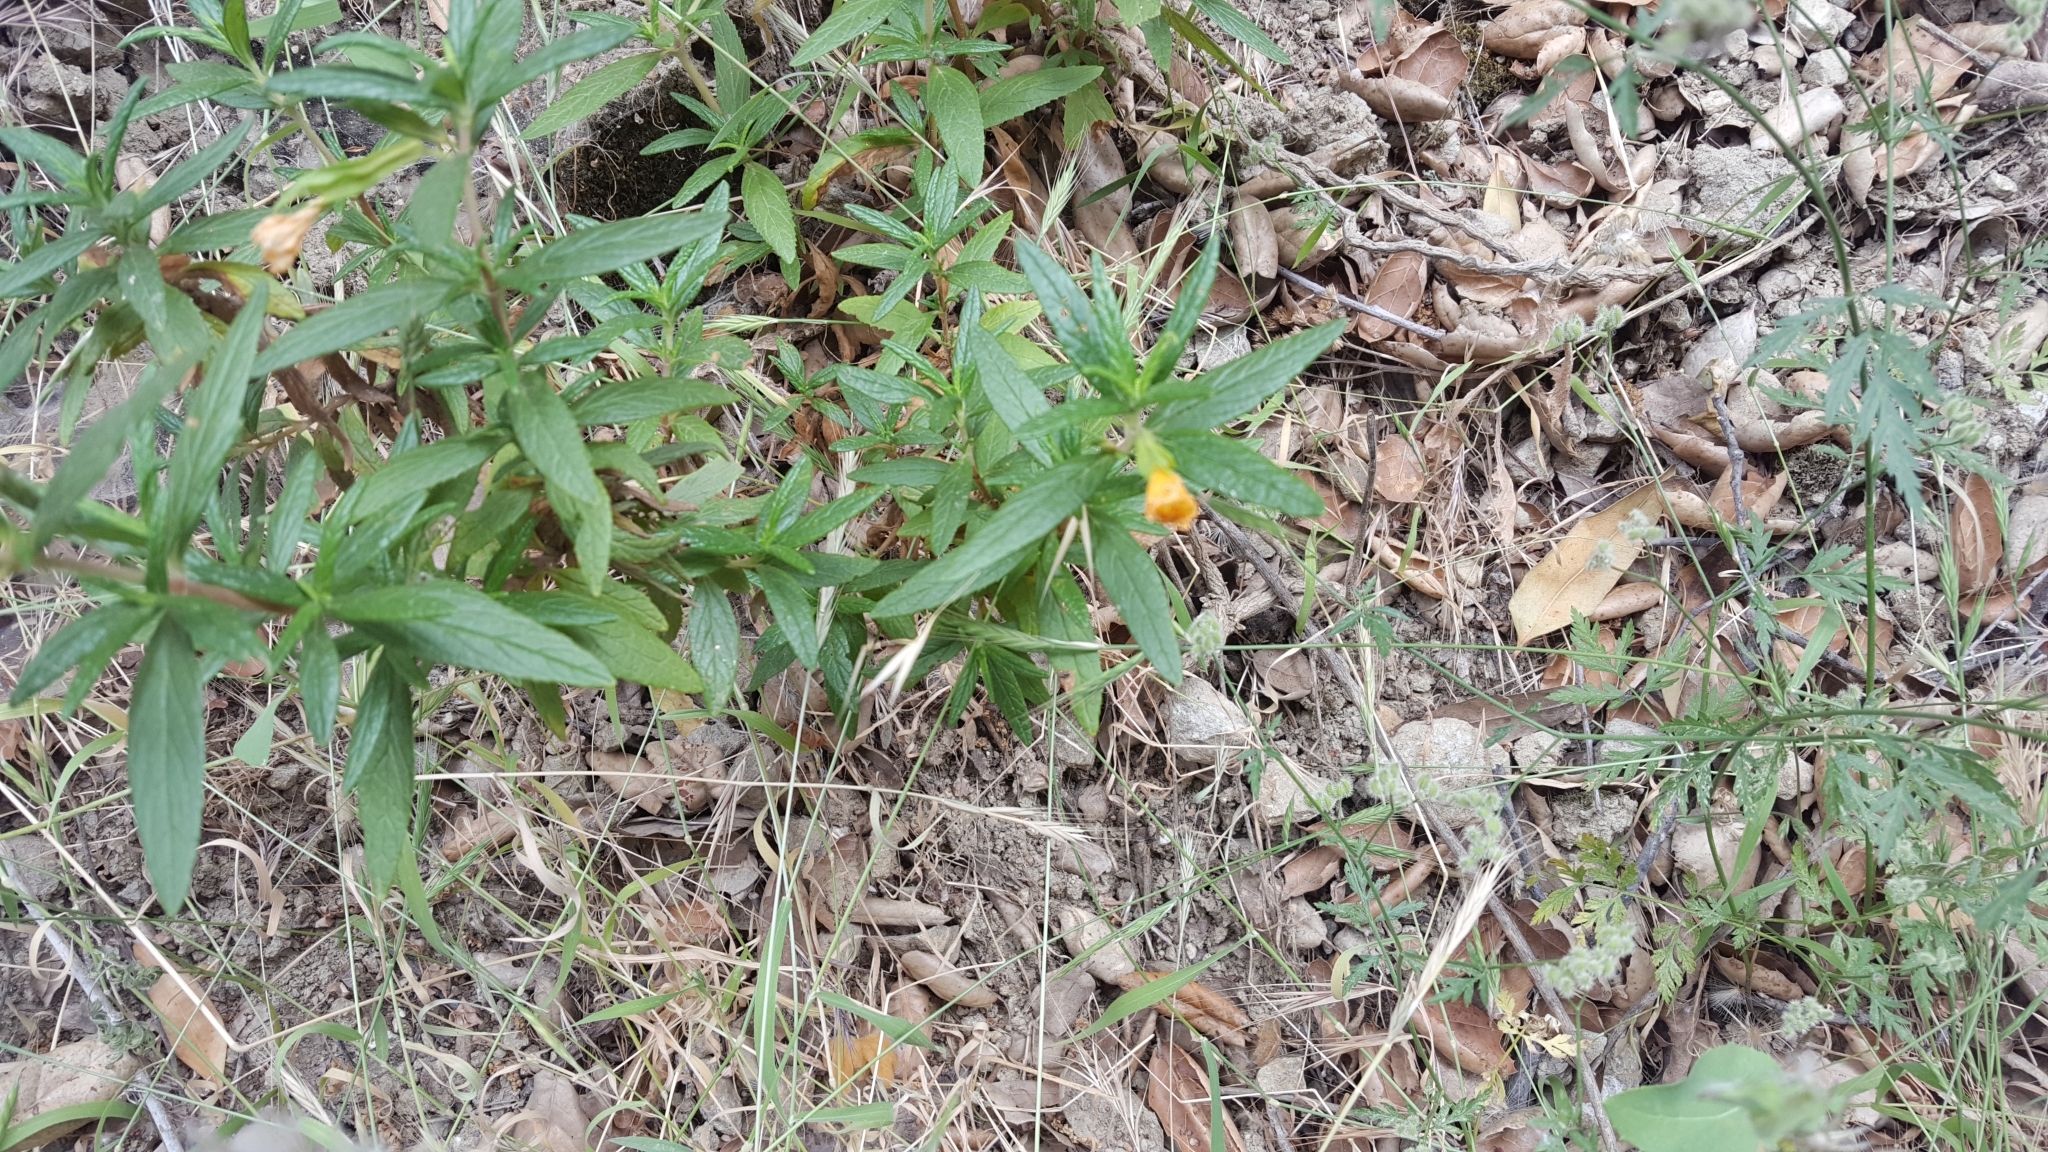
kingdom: Plantae
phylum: Tracheophyta
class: Magnoliopsida
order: Lamiales
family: Phrymaceae
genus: Diplacus
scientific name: Diplacus aurantiacus
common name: Bush monkey-flower
